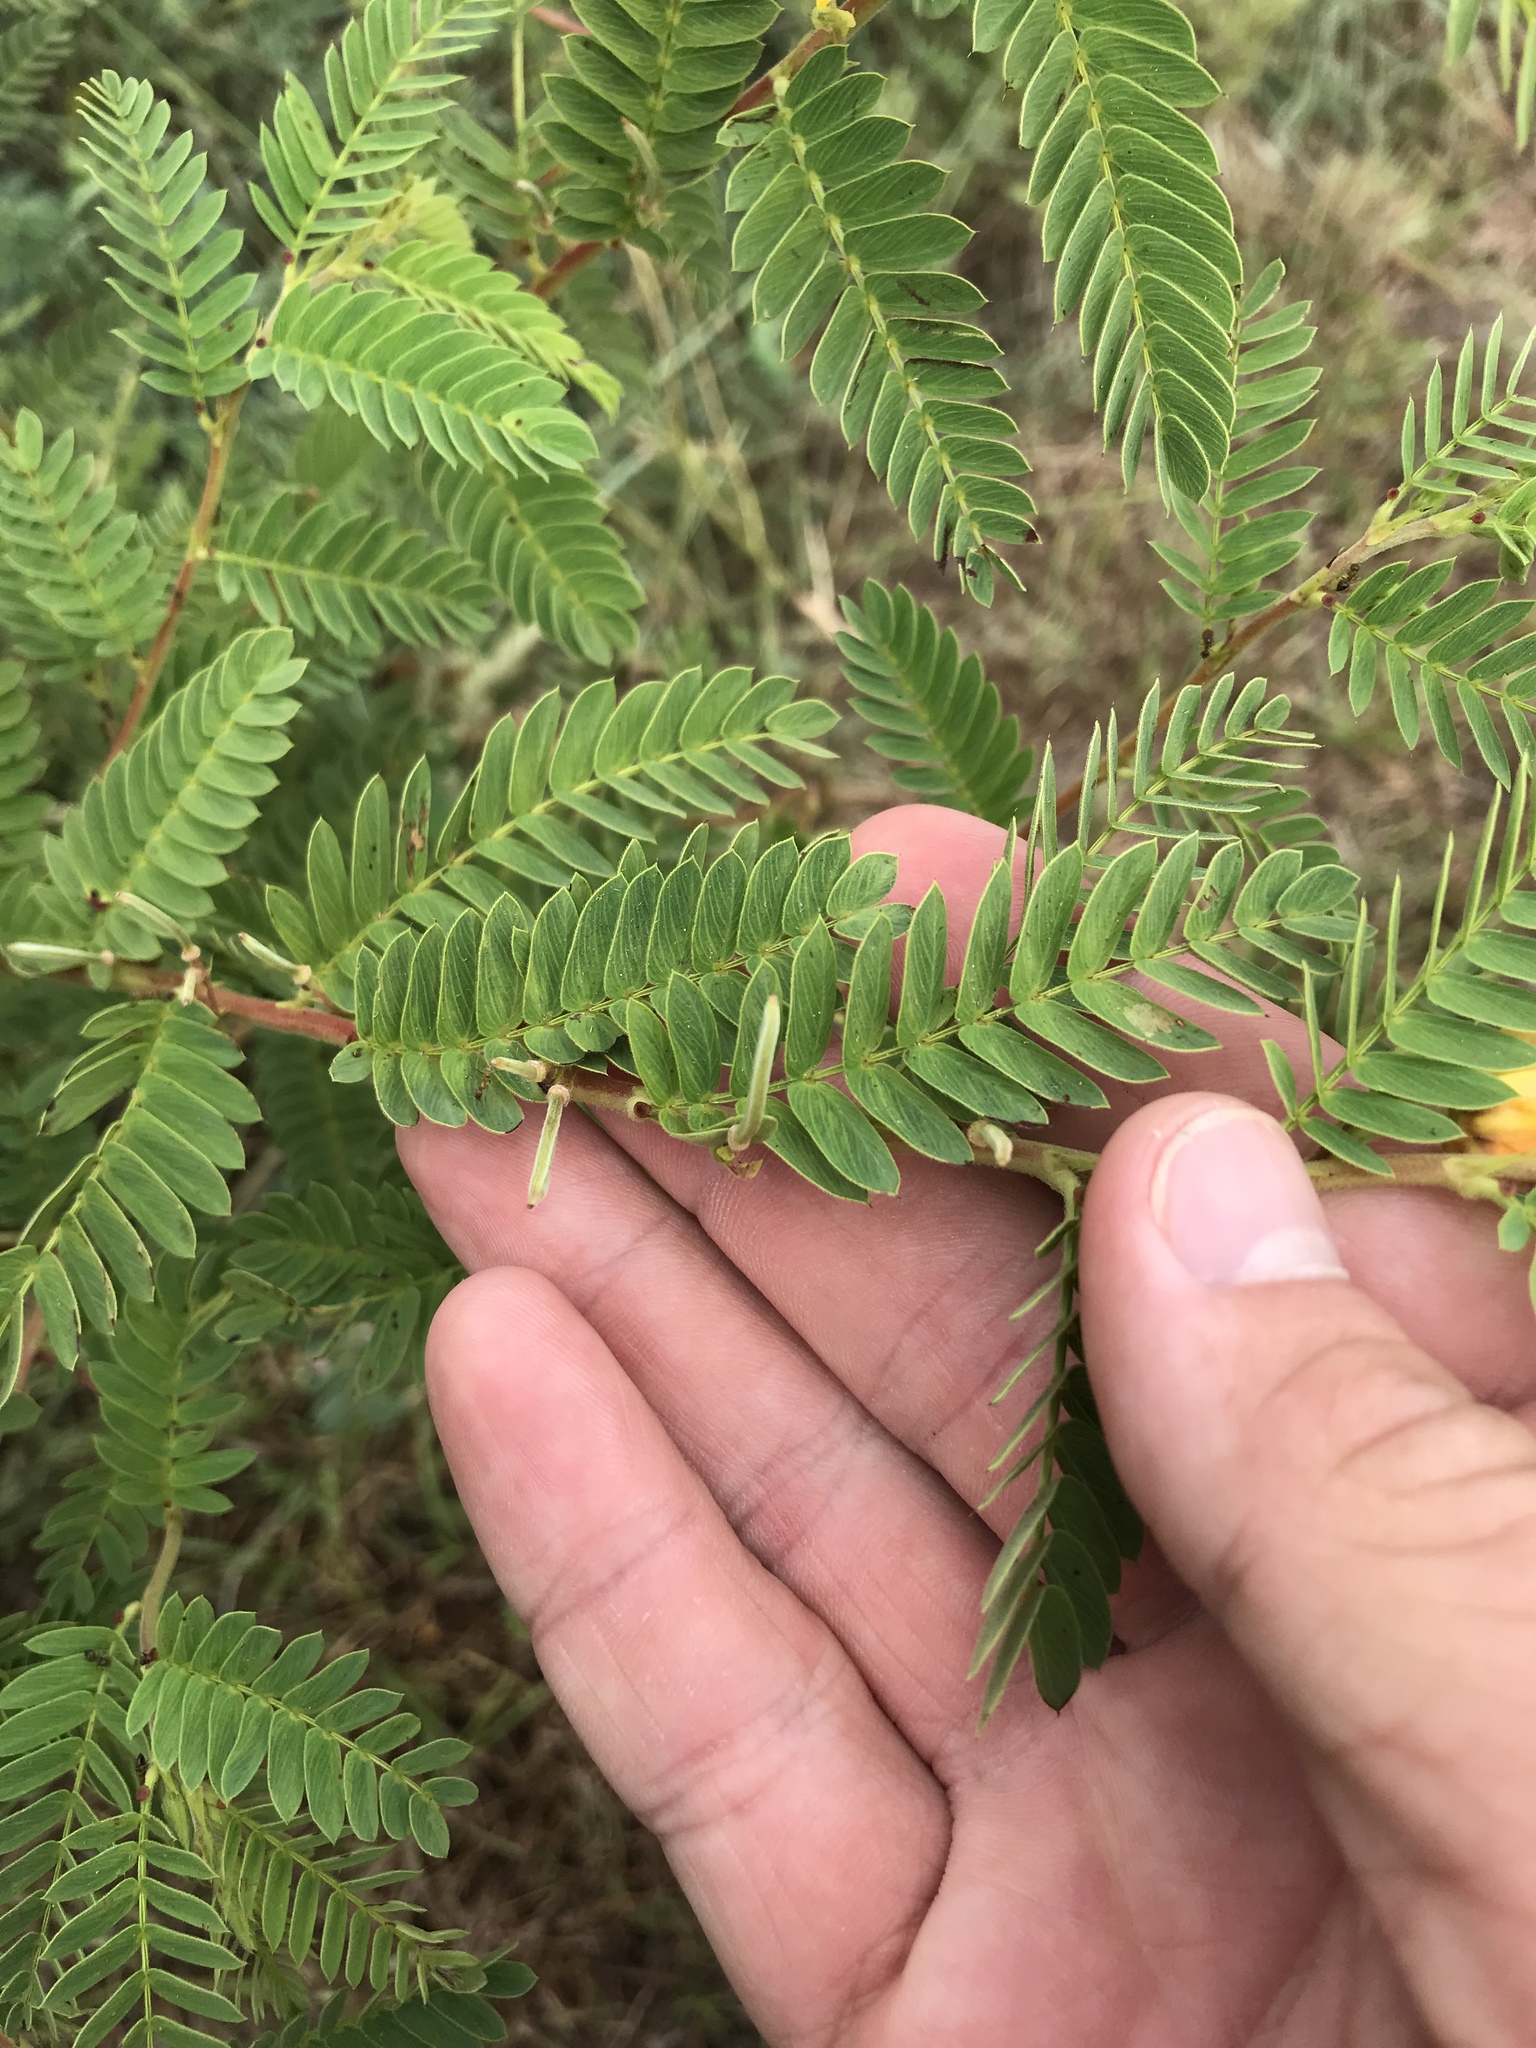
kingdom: Plantae
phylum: Tracheophyta
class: Magnoliopsida
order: Fabales
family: Fabaceae
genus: Chamaecrista
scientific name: Chamaecrista fasciculata
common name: Golden cassia
